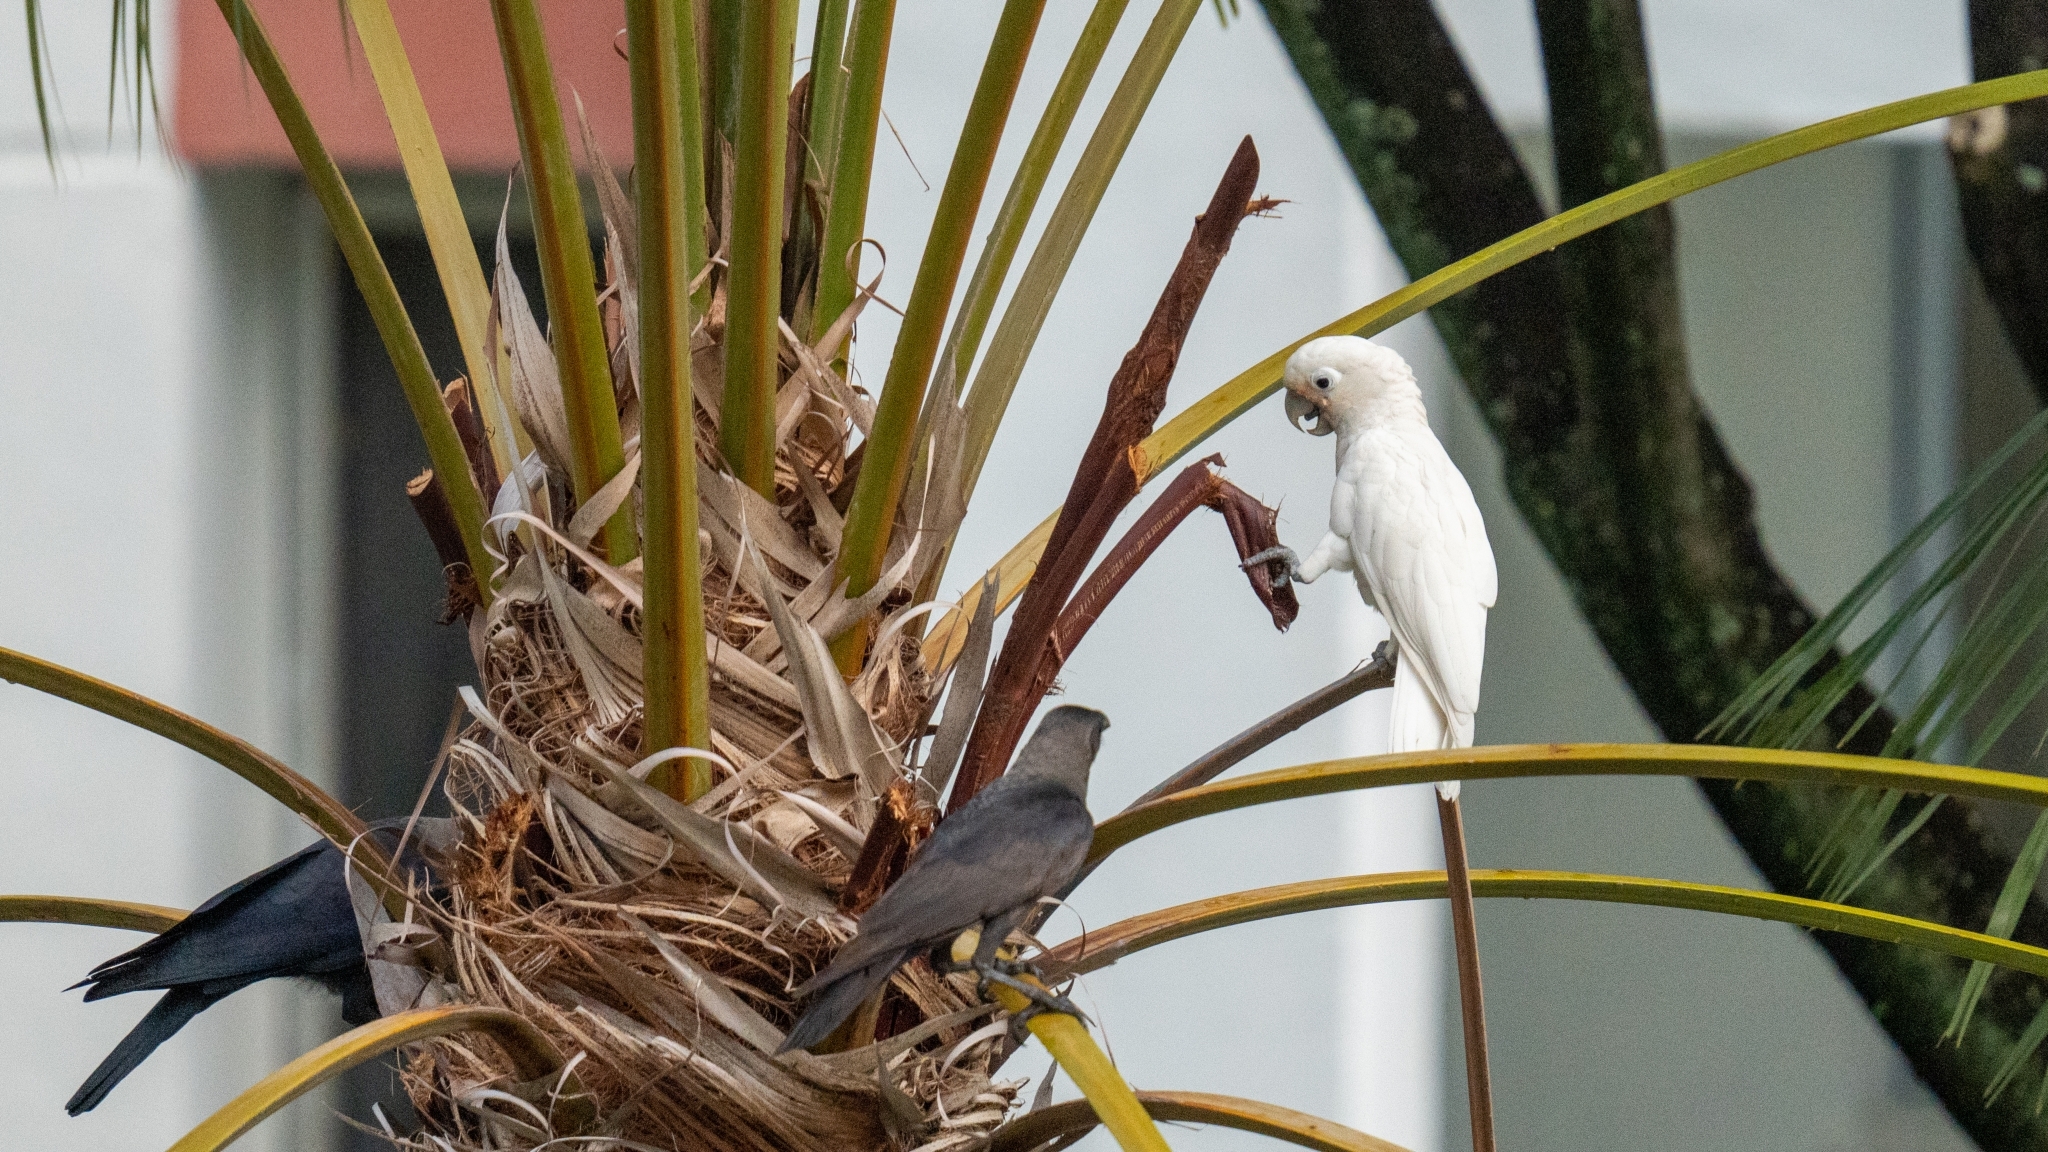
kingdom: Animalia
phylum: Chordata
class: Aves
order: Psittaciformes
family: Psittacidae
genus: Cacatua
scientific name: Cacatua goffiniana
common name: Tanimbar corella
